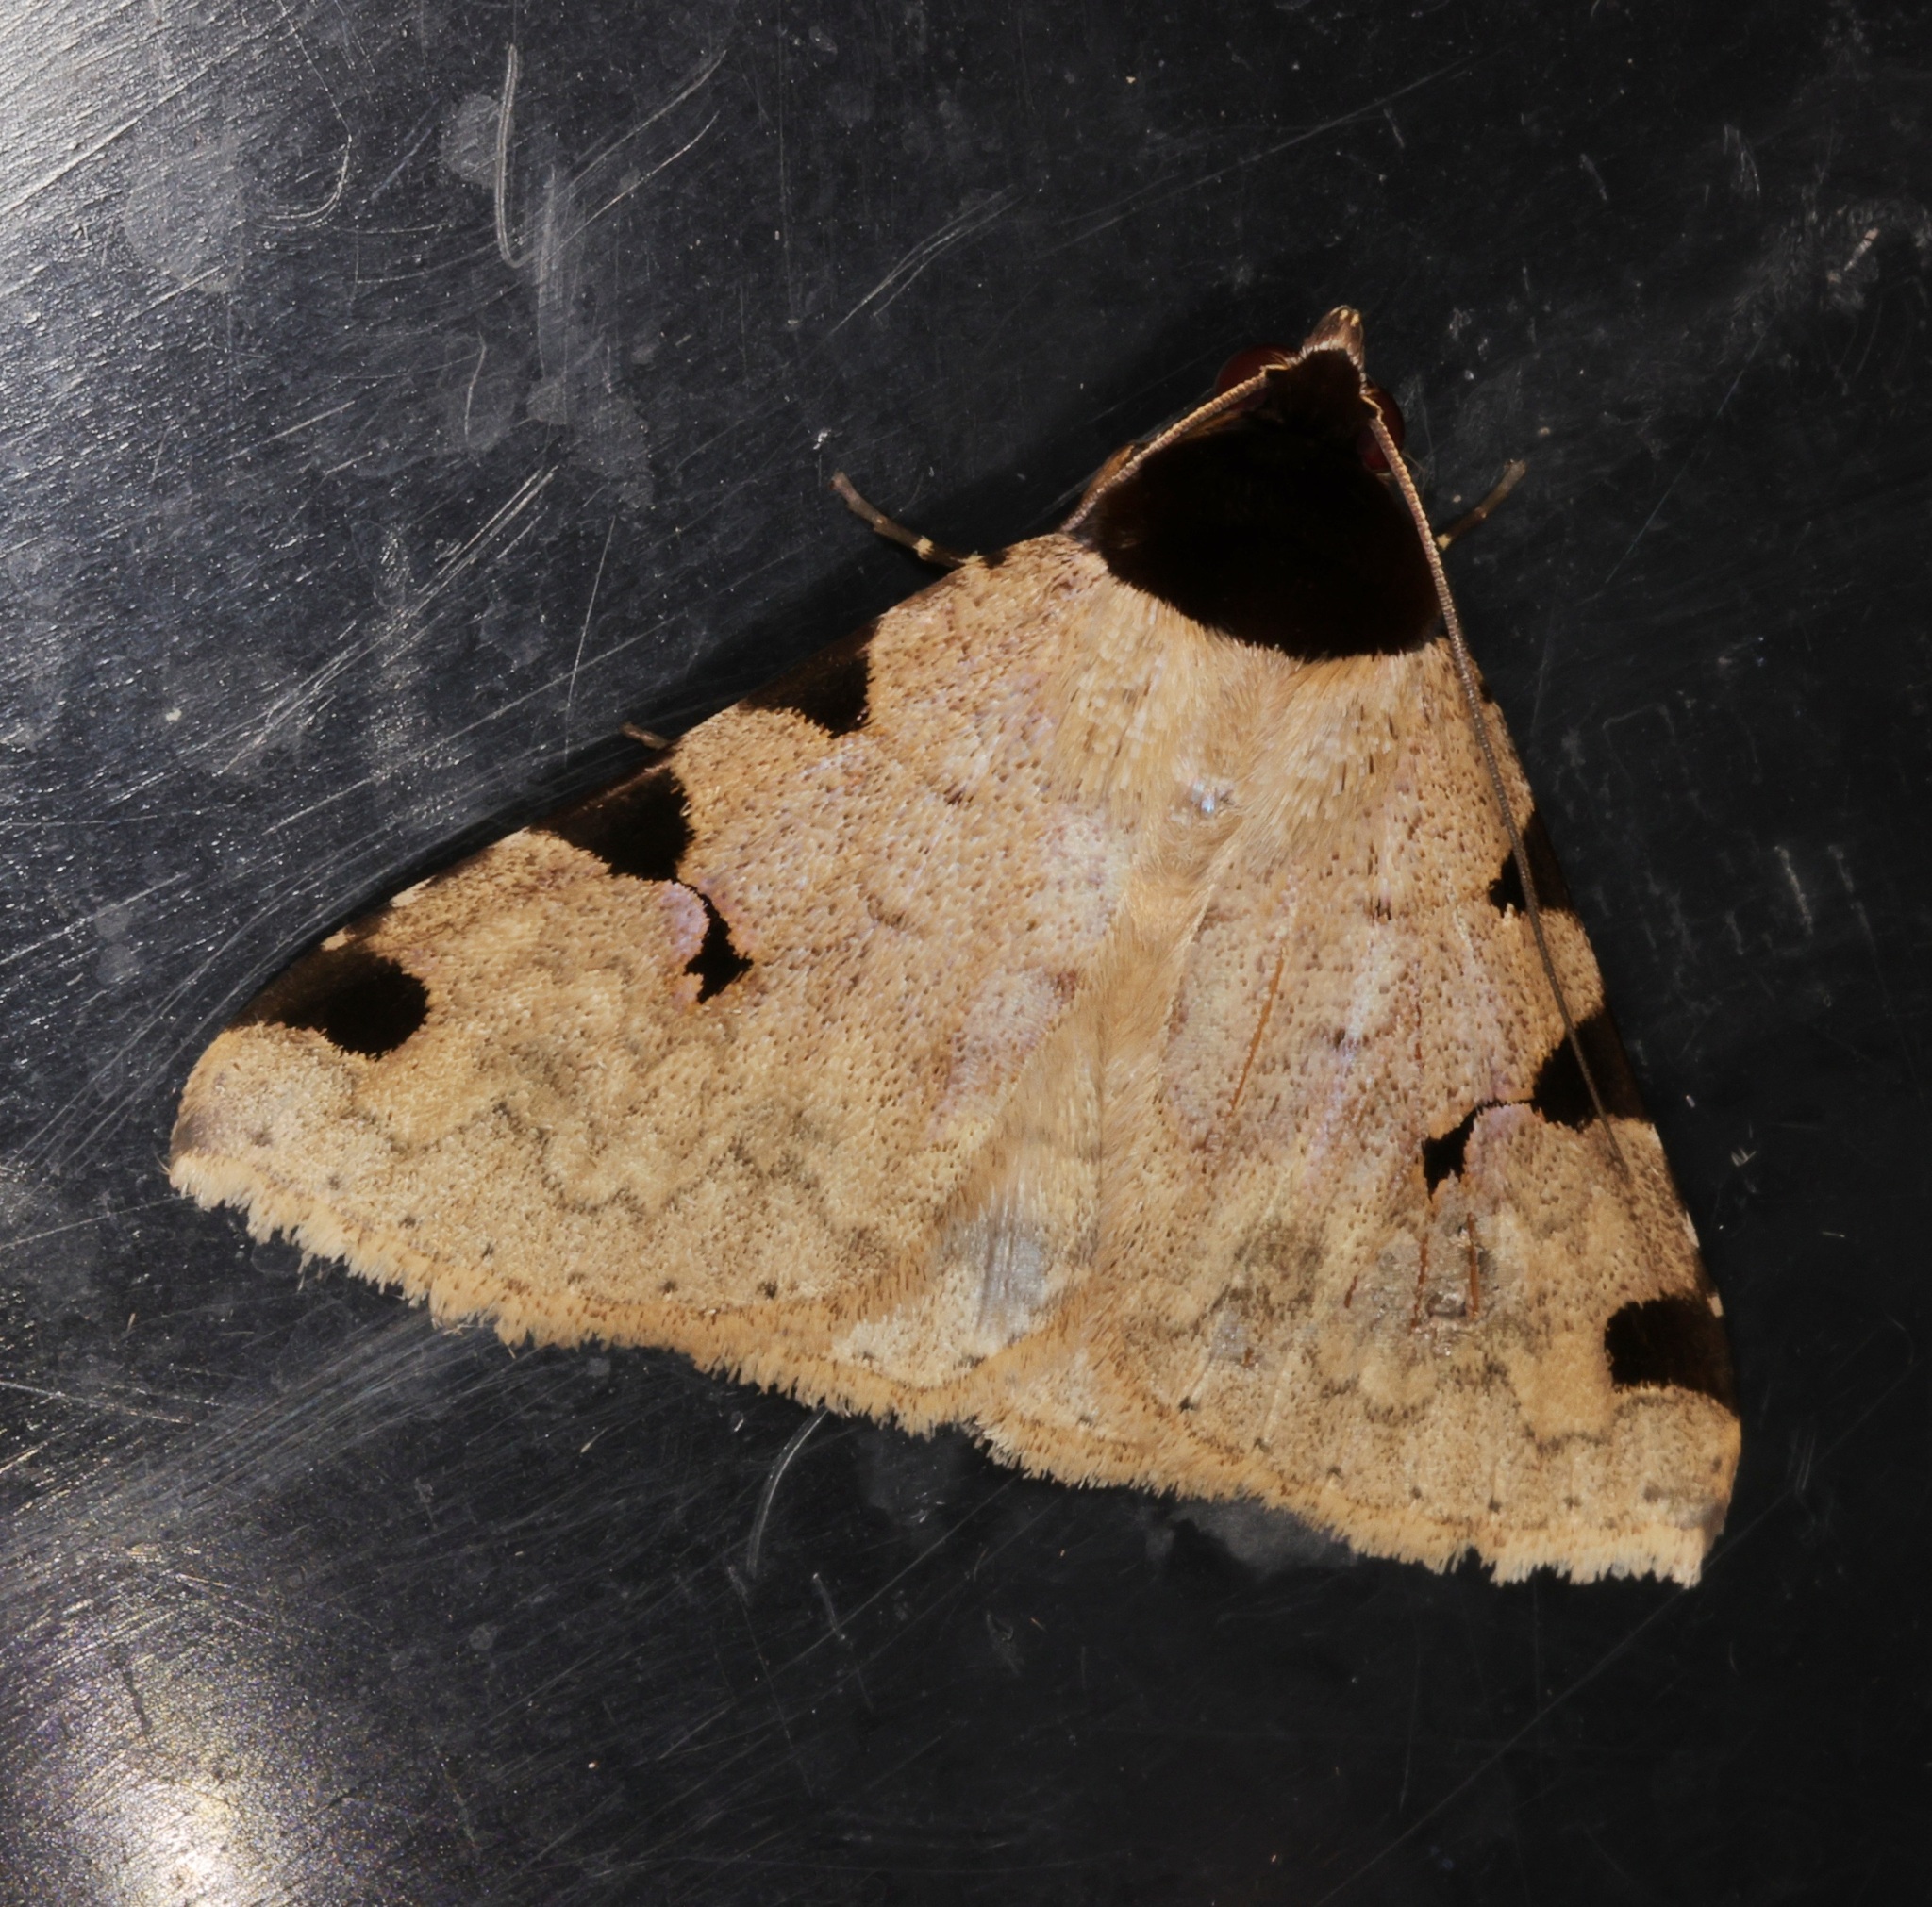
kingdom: Animalia
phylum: Arthropoda
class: Insecta
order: Lepidoptera
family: Erebidae
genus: Rema
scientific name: Rema costimacula
